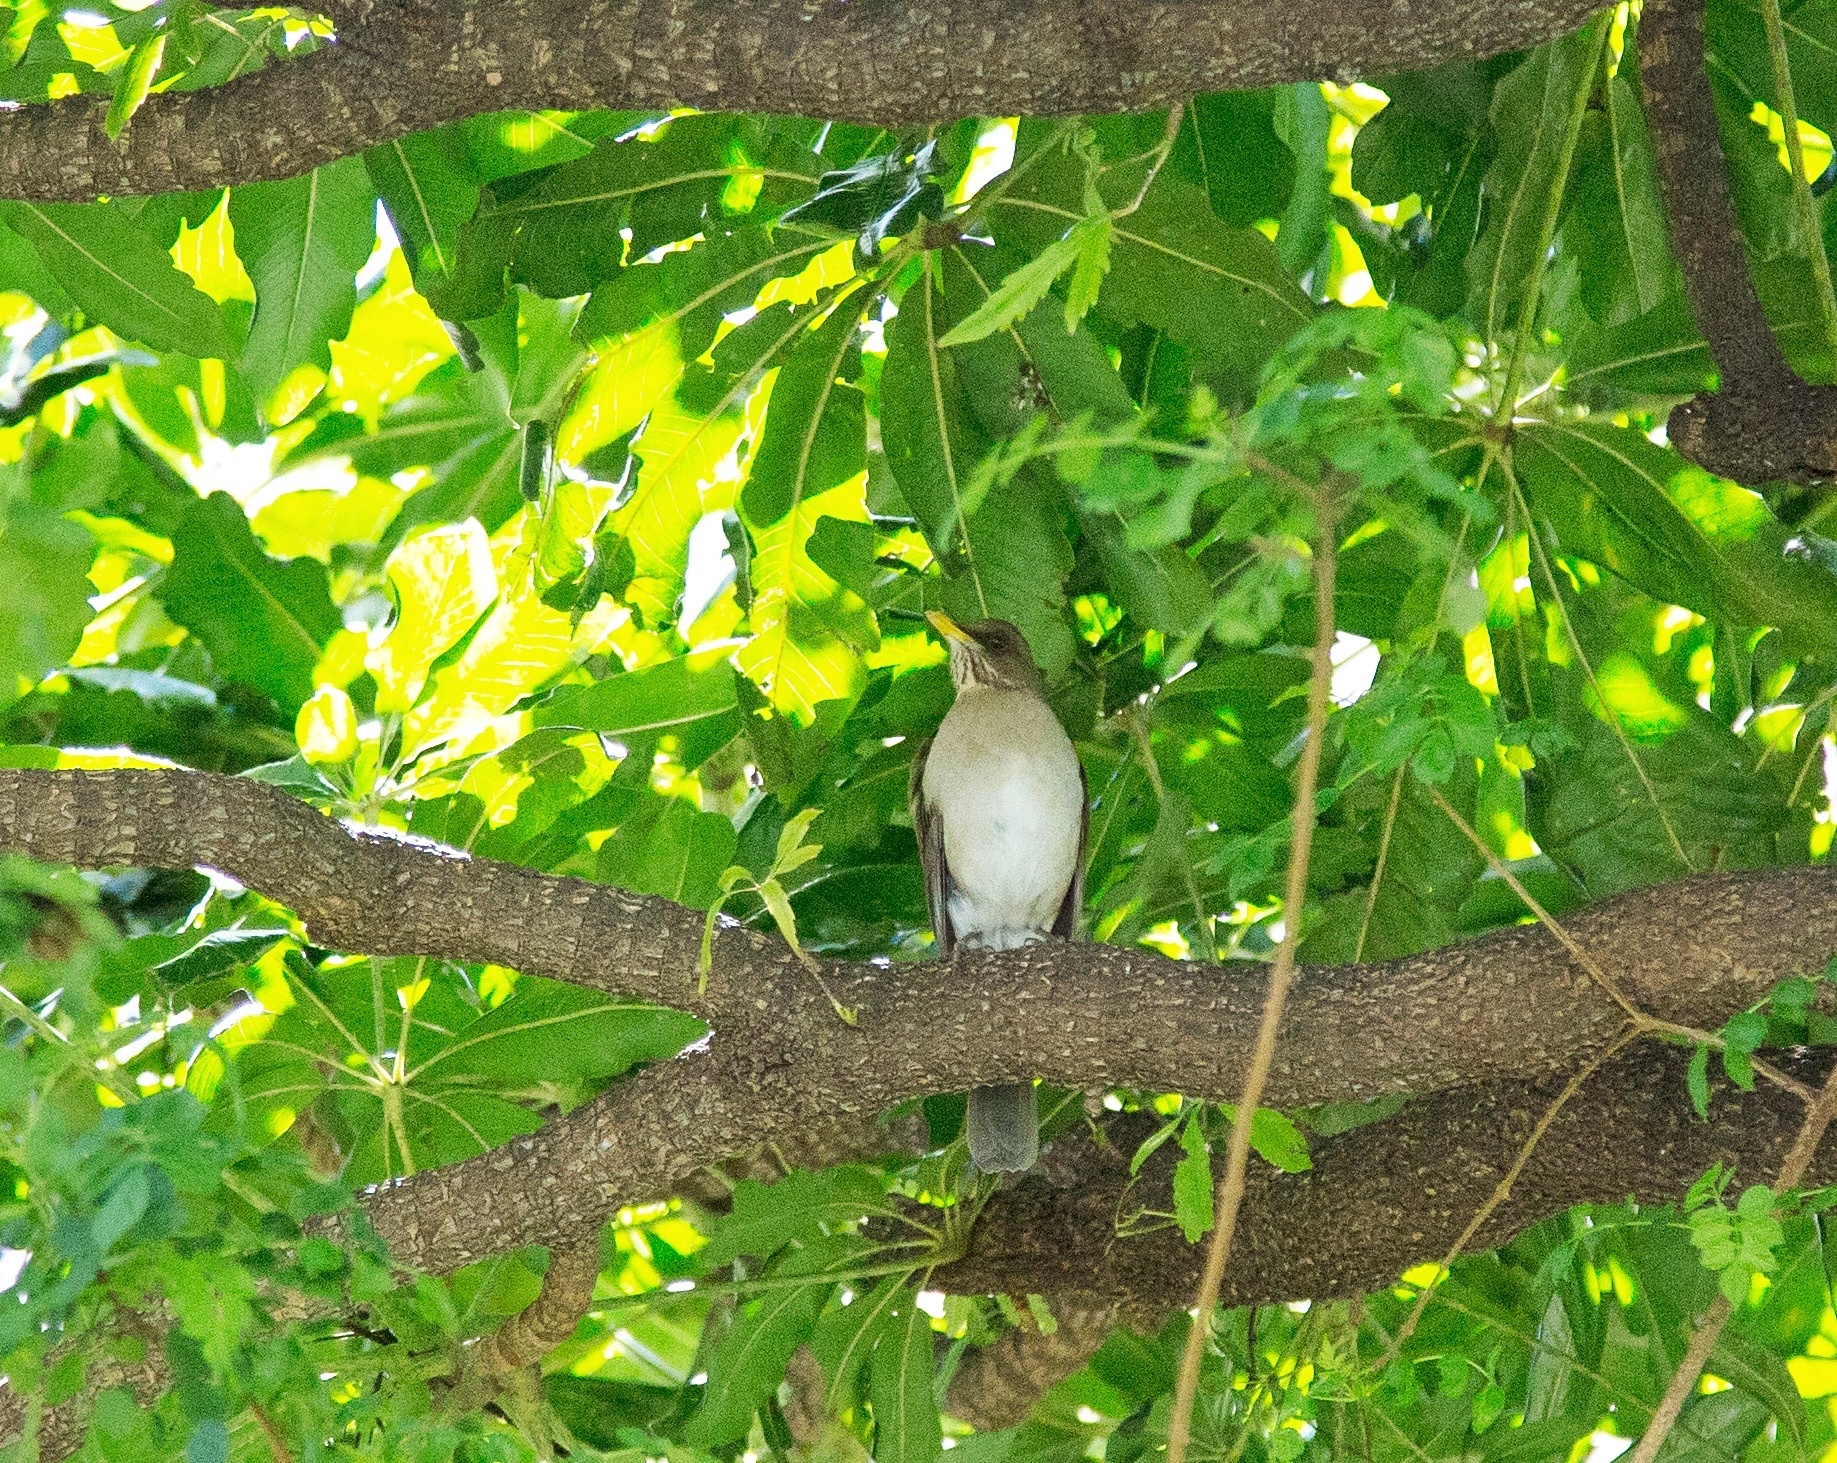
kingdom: Animalia
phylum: Chordata
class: Aves
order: Passeriformes
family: Turdidae
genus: Turdus
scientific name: Turdus amaurochalinus
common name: Creamy-bellied thrush
